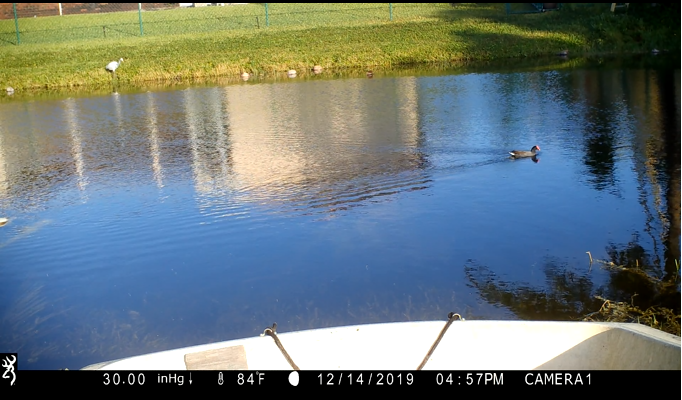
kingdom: Animalia
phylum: Chordata
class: Aves
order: Pelecaniformes
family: Ardeidae
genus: Ardea
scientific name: Ardea alba
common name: Great egret
